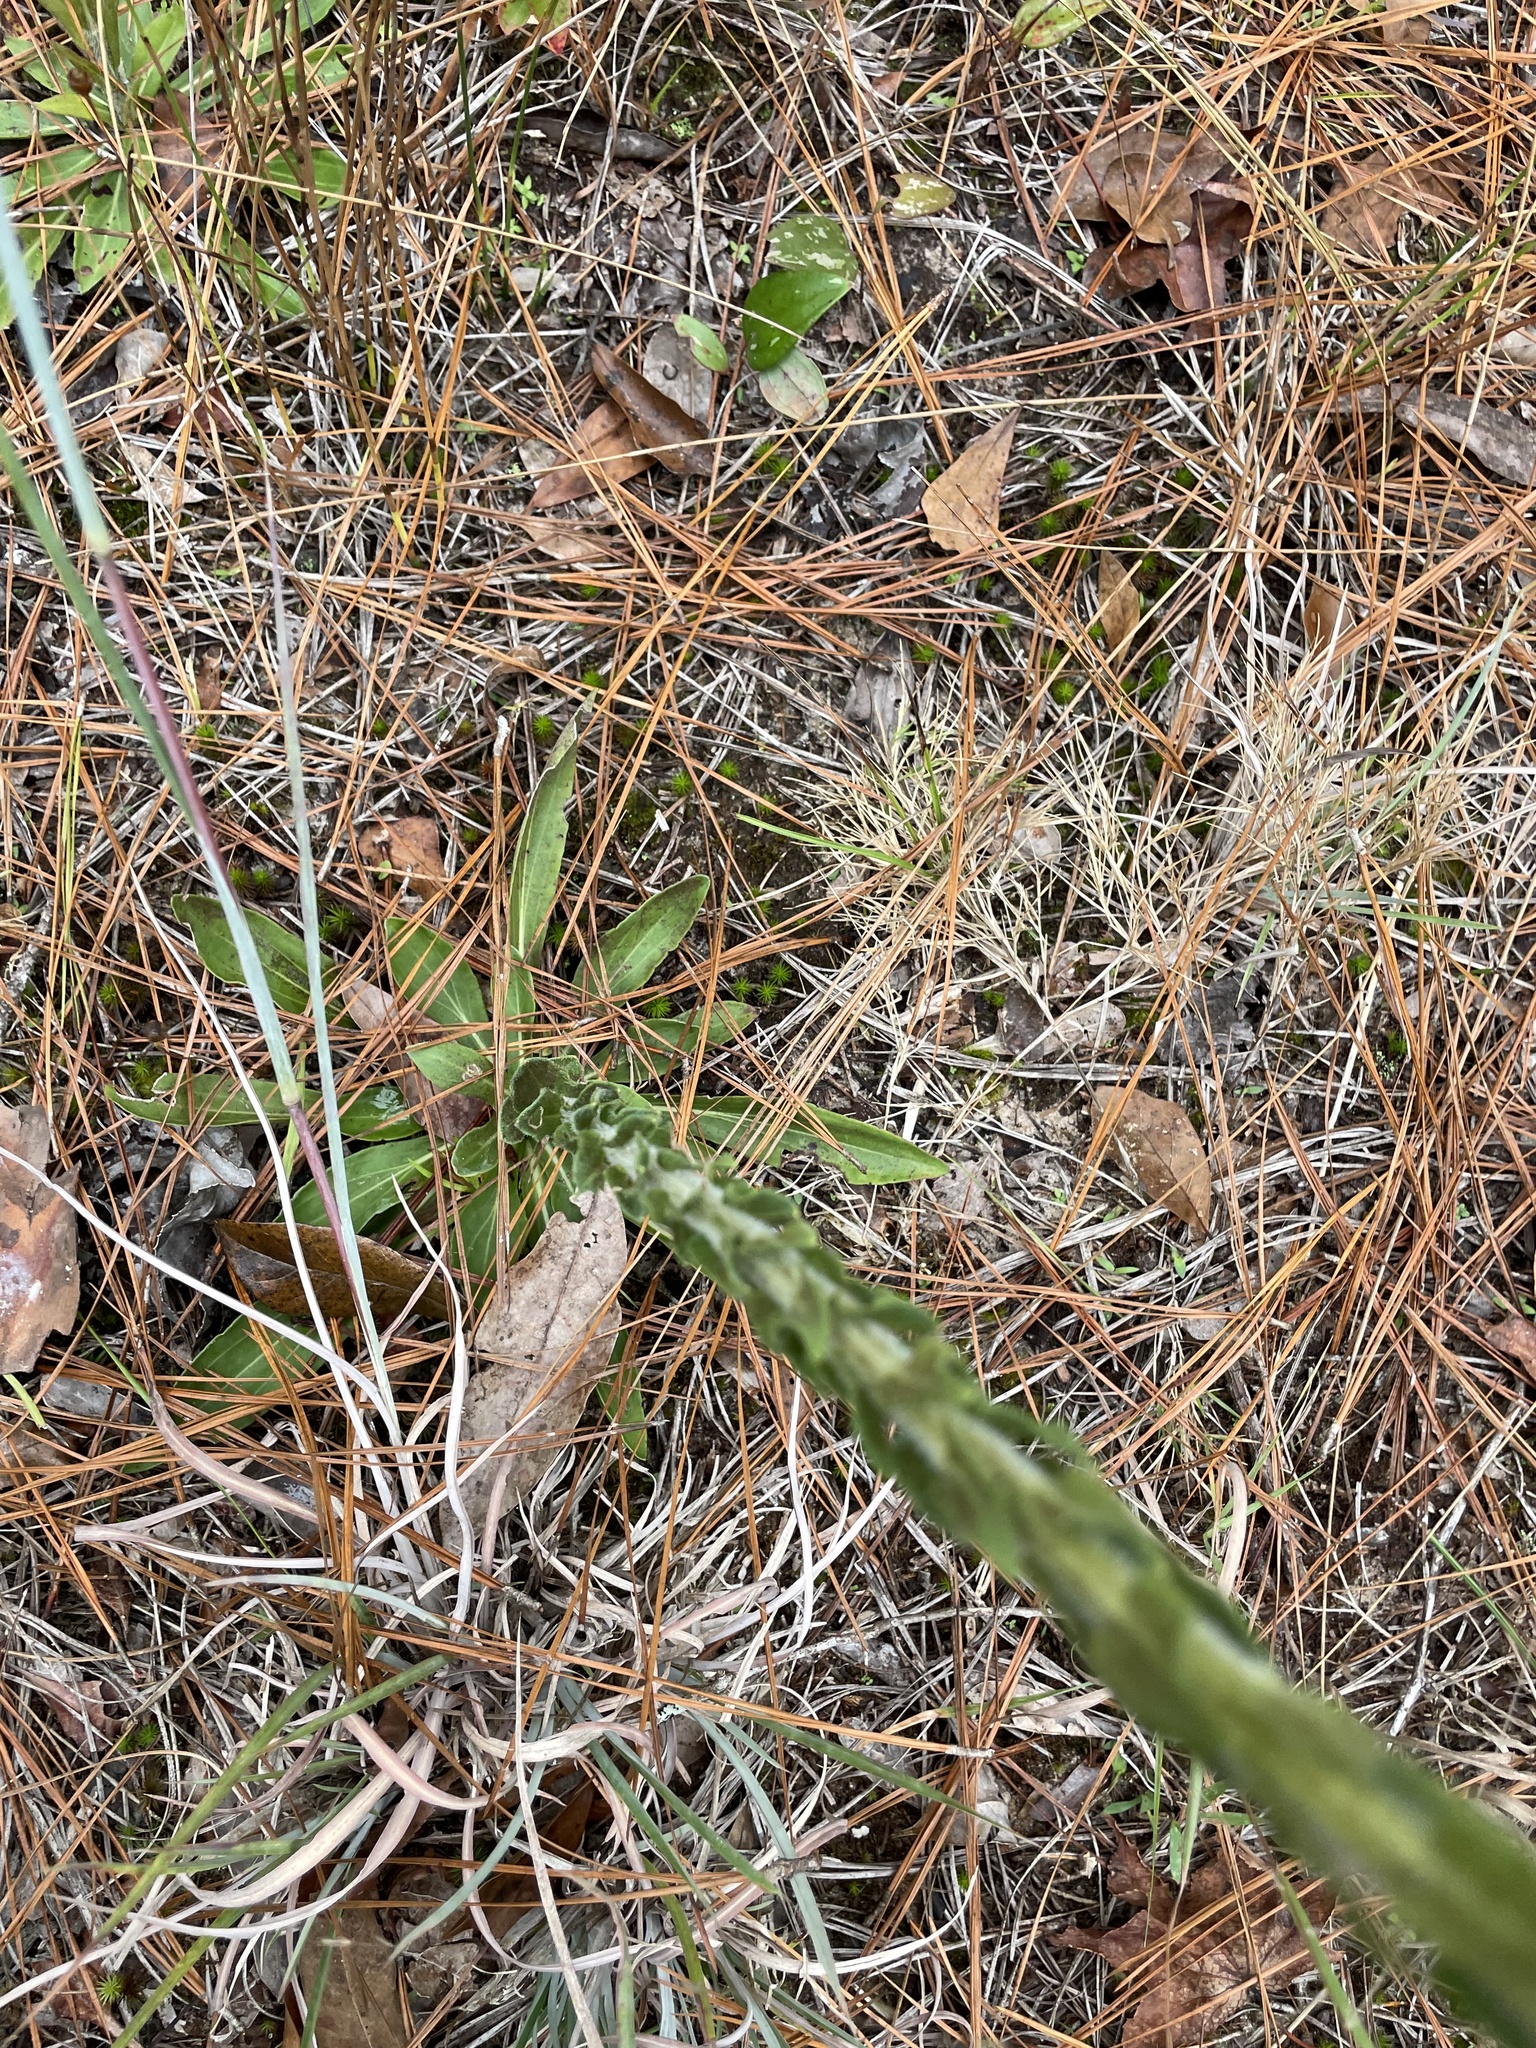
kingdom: Plantae
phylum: Tracheophyta
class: Magnoliopsida
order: Asterales
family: Asteraceae
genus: Carphephorus
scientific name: Carphephorus paniculatus
